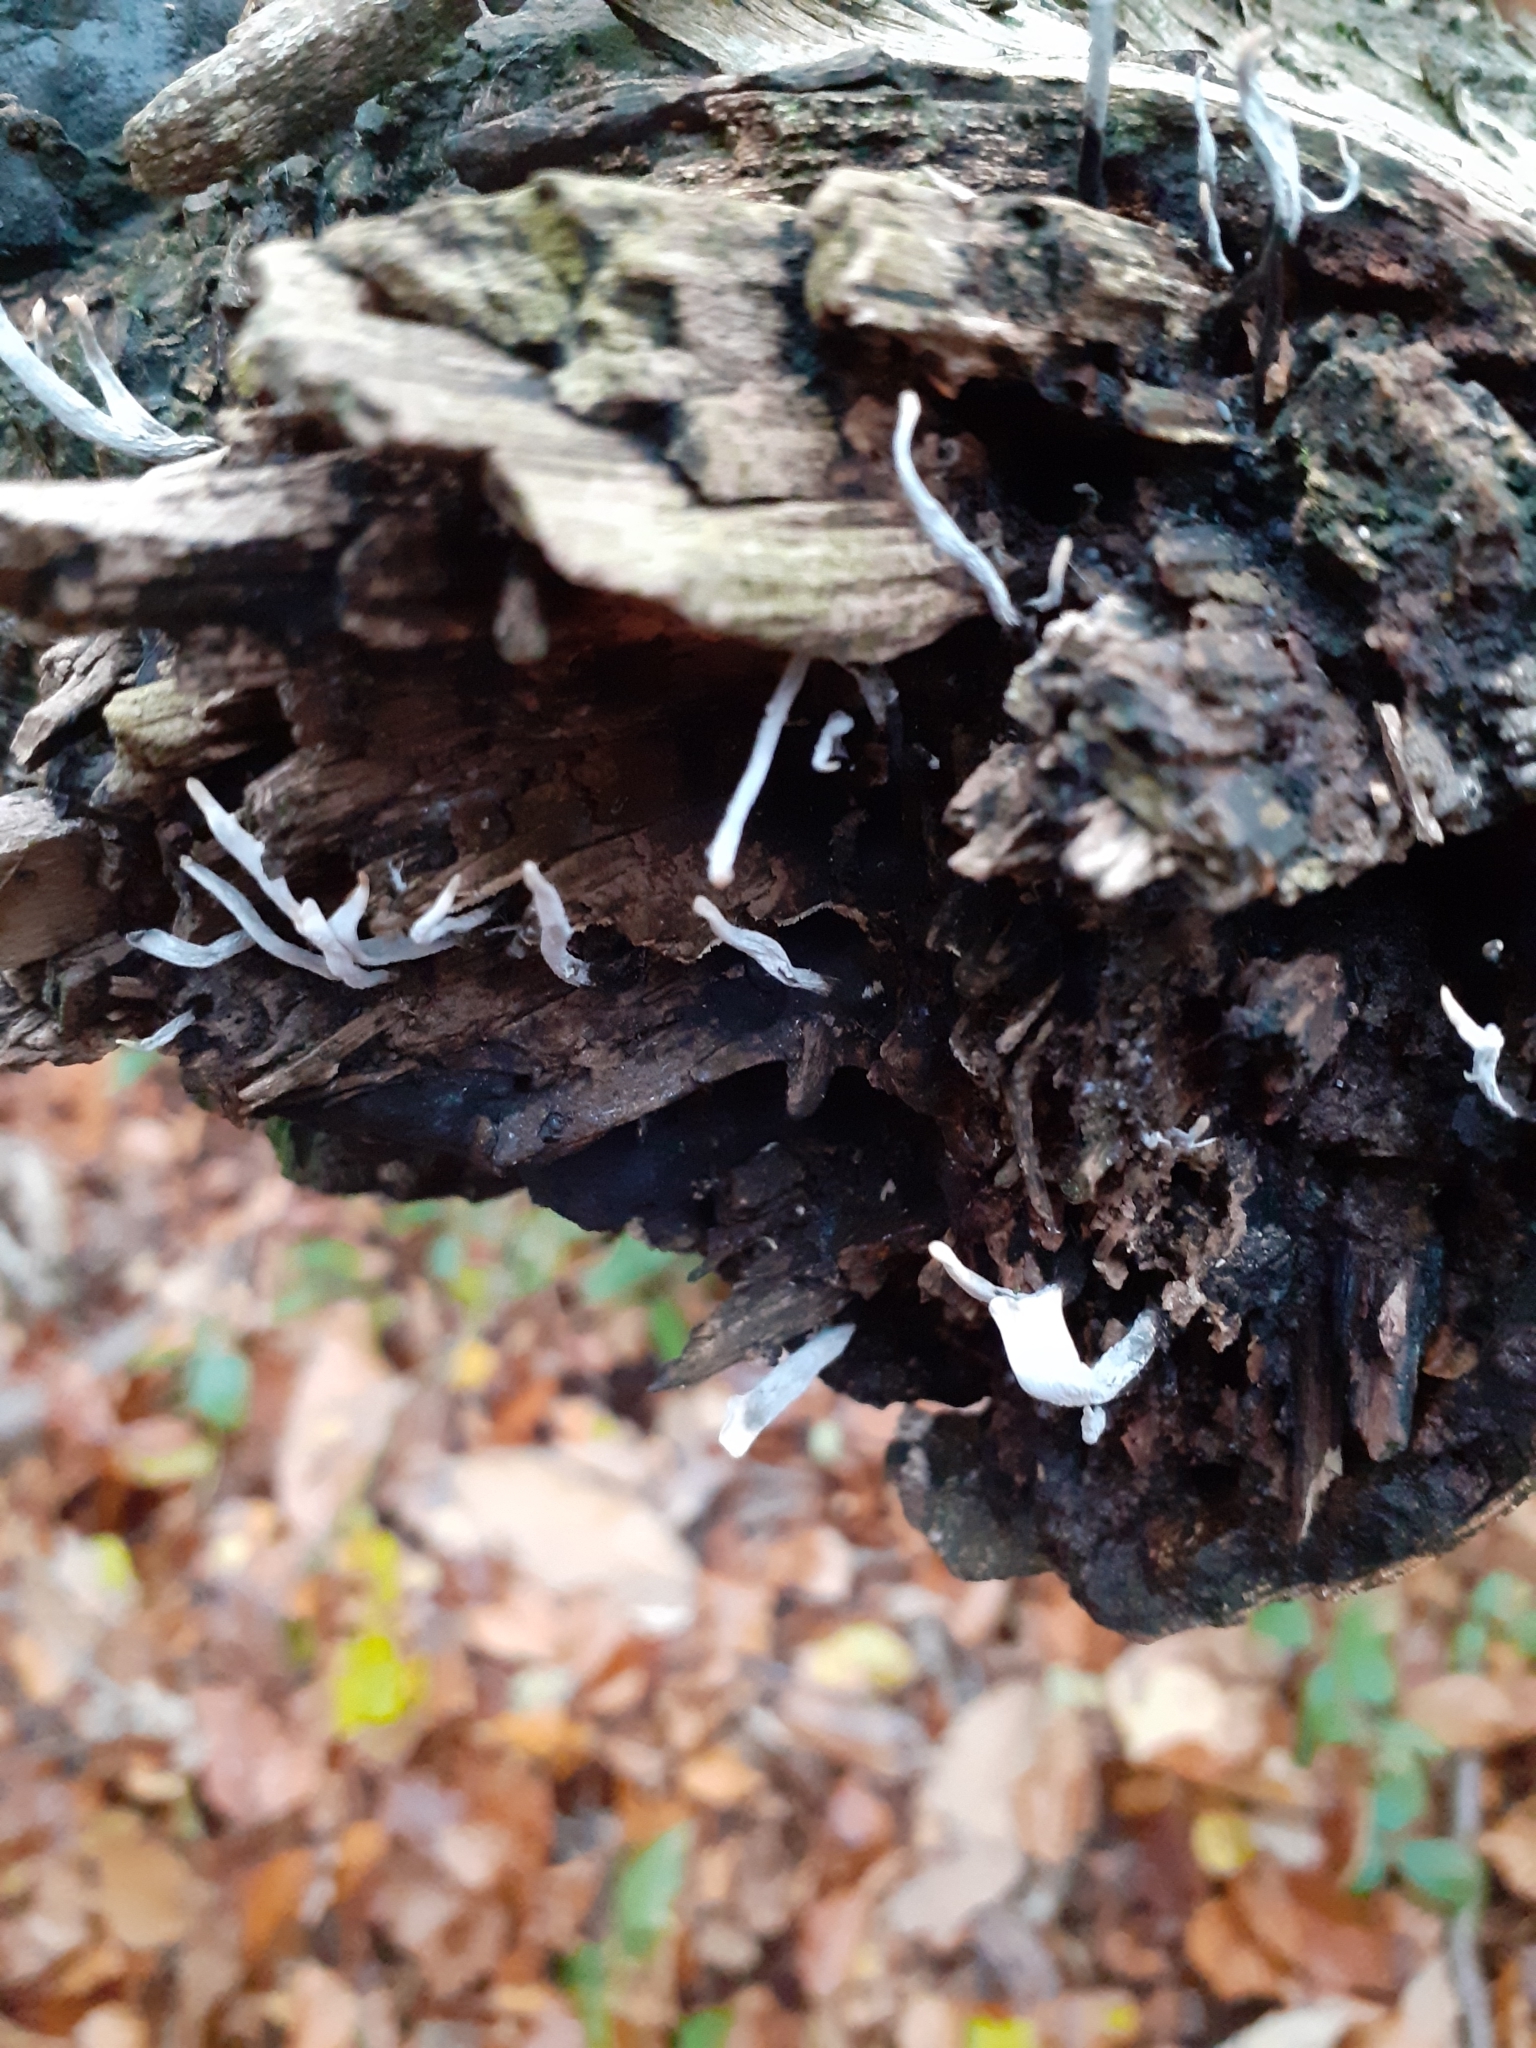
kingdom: Fungi
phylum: Ascomycota
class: Sordariomycetes
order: Xylariales
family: Xylariaceae
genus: Xylaria
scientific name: Xylaria hypoxylon
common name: Candle-snuff fungus
